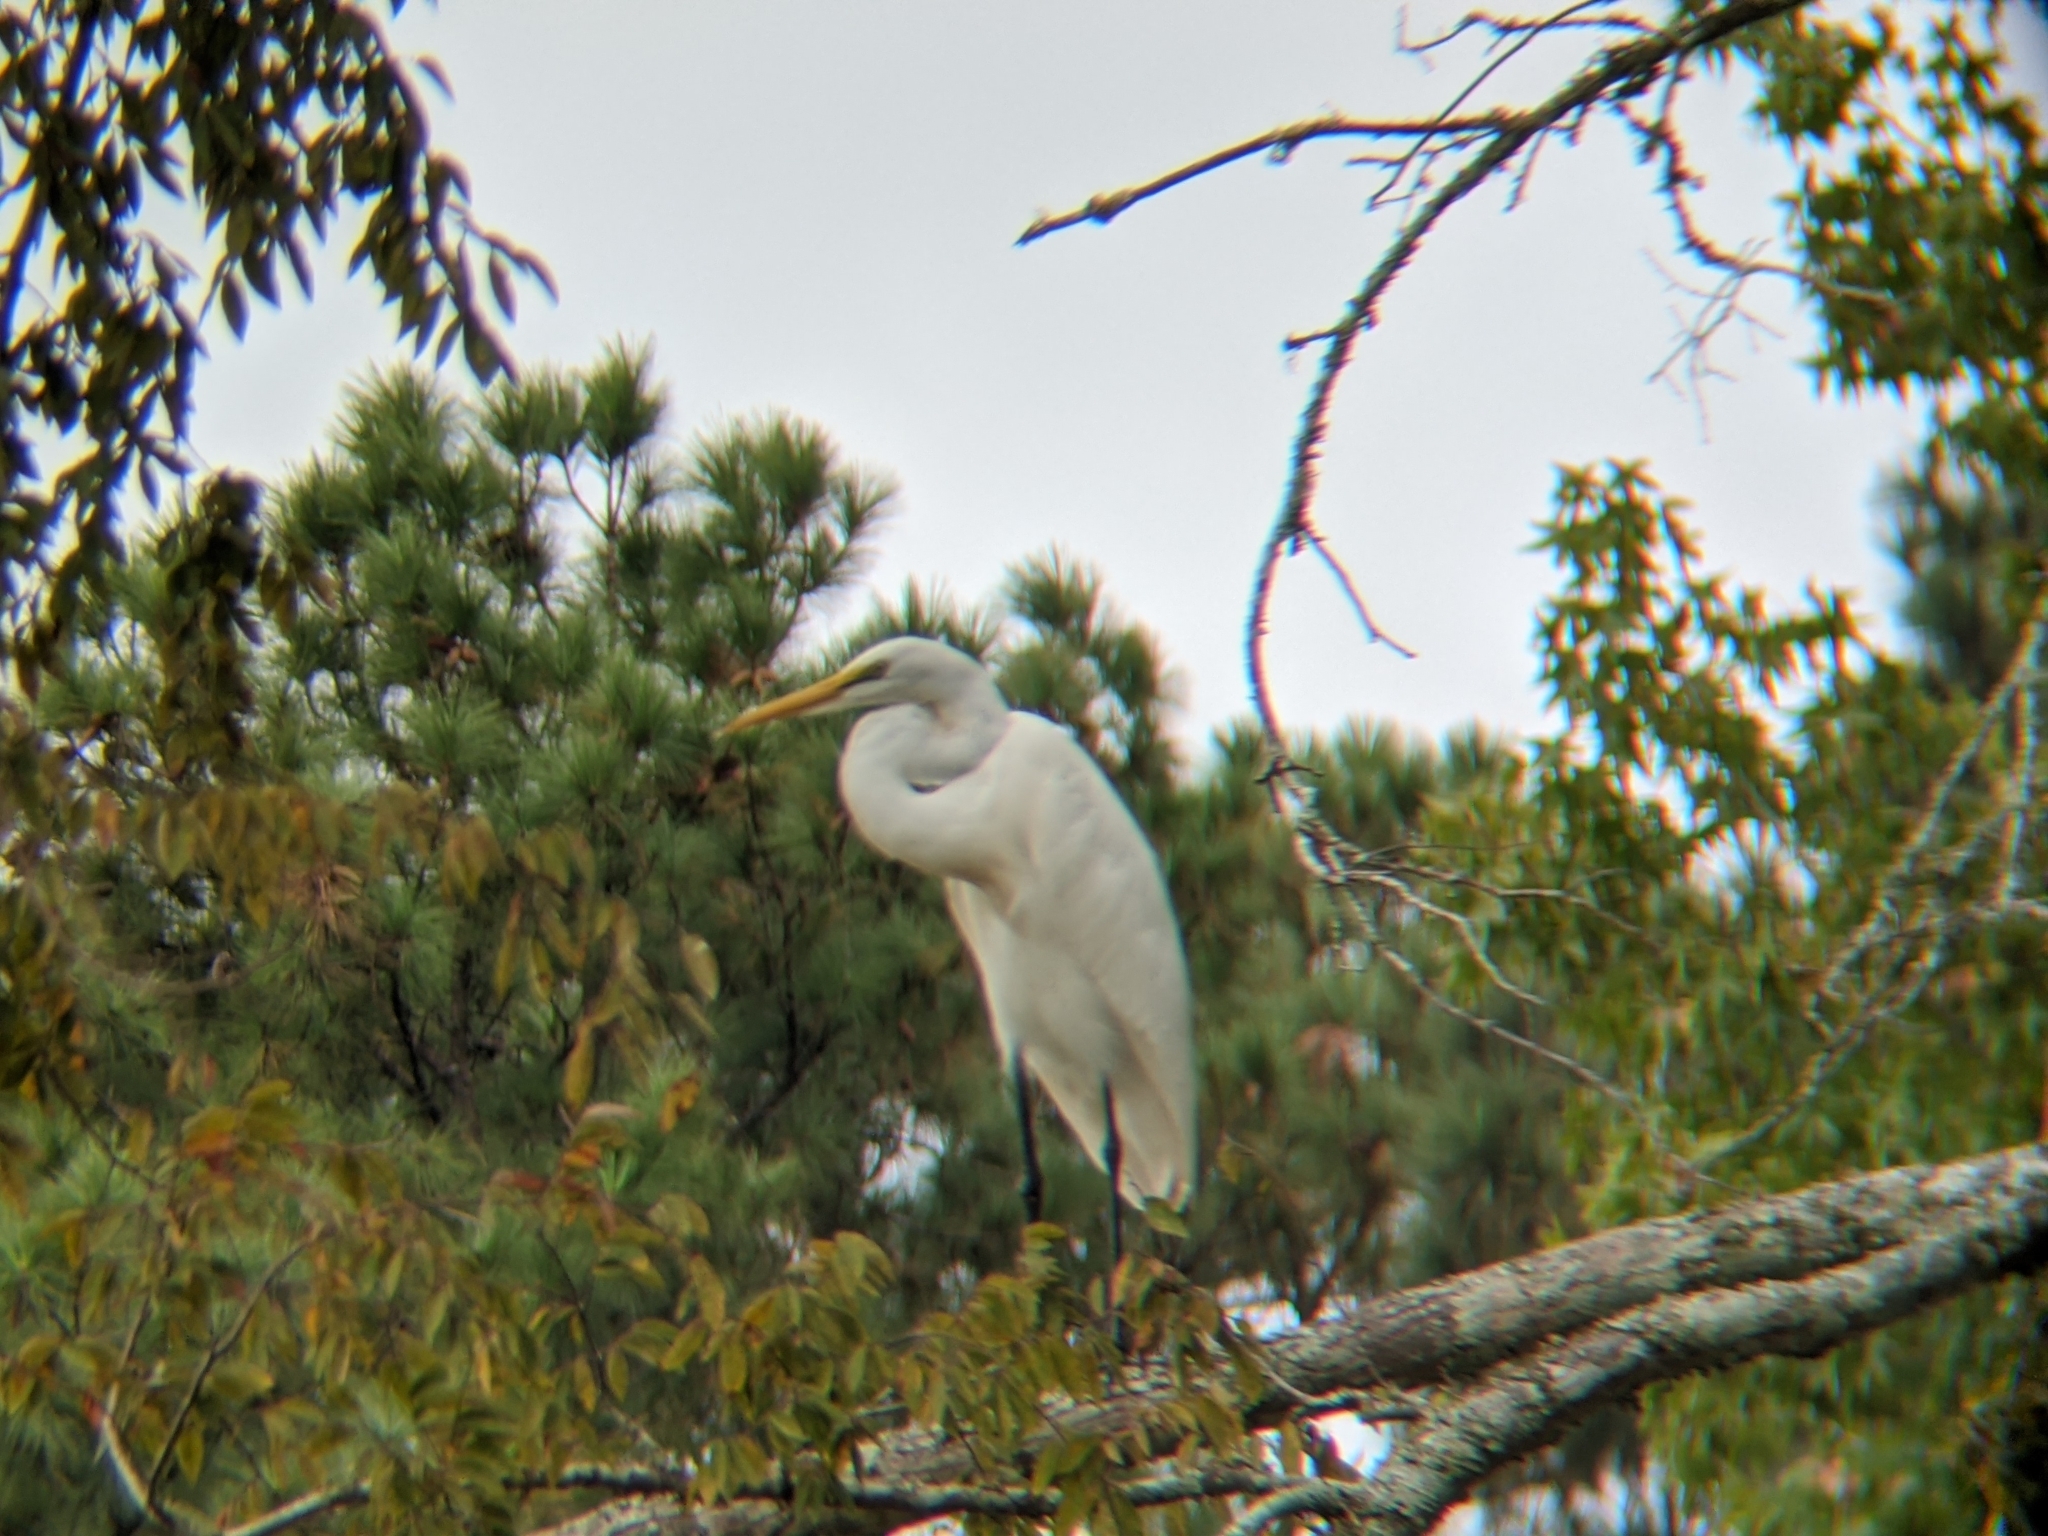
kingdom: Animalia
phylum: Chordata
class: Aves
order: Pelecaniformes
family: Ardeidae
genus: Ardea
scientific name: Ardea alba
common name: Great egret
